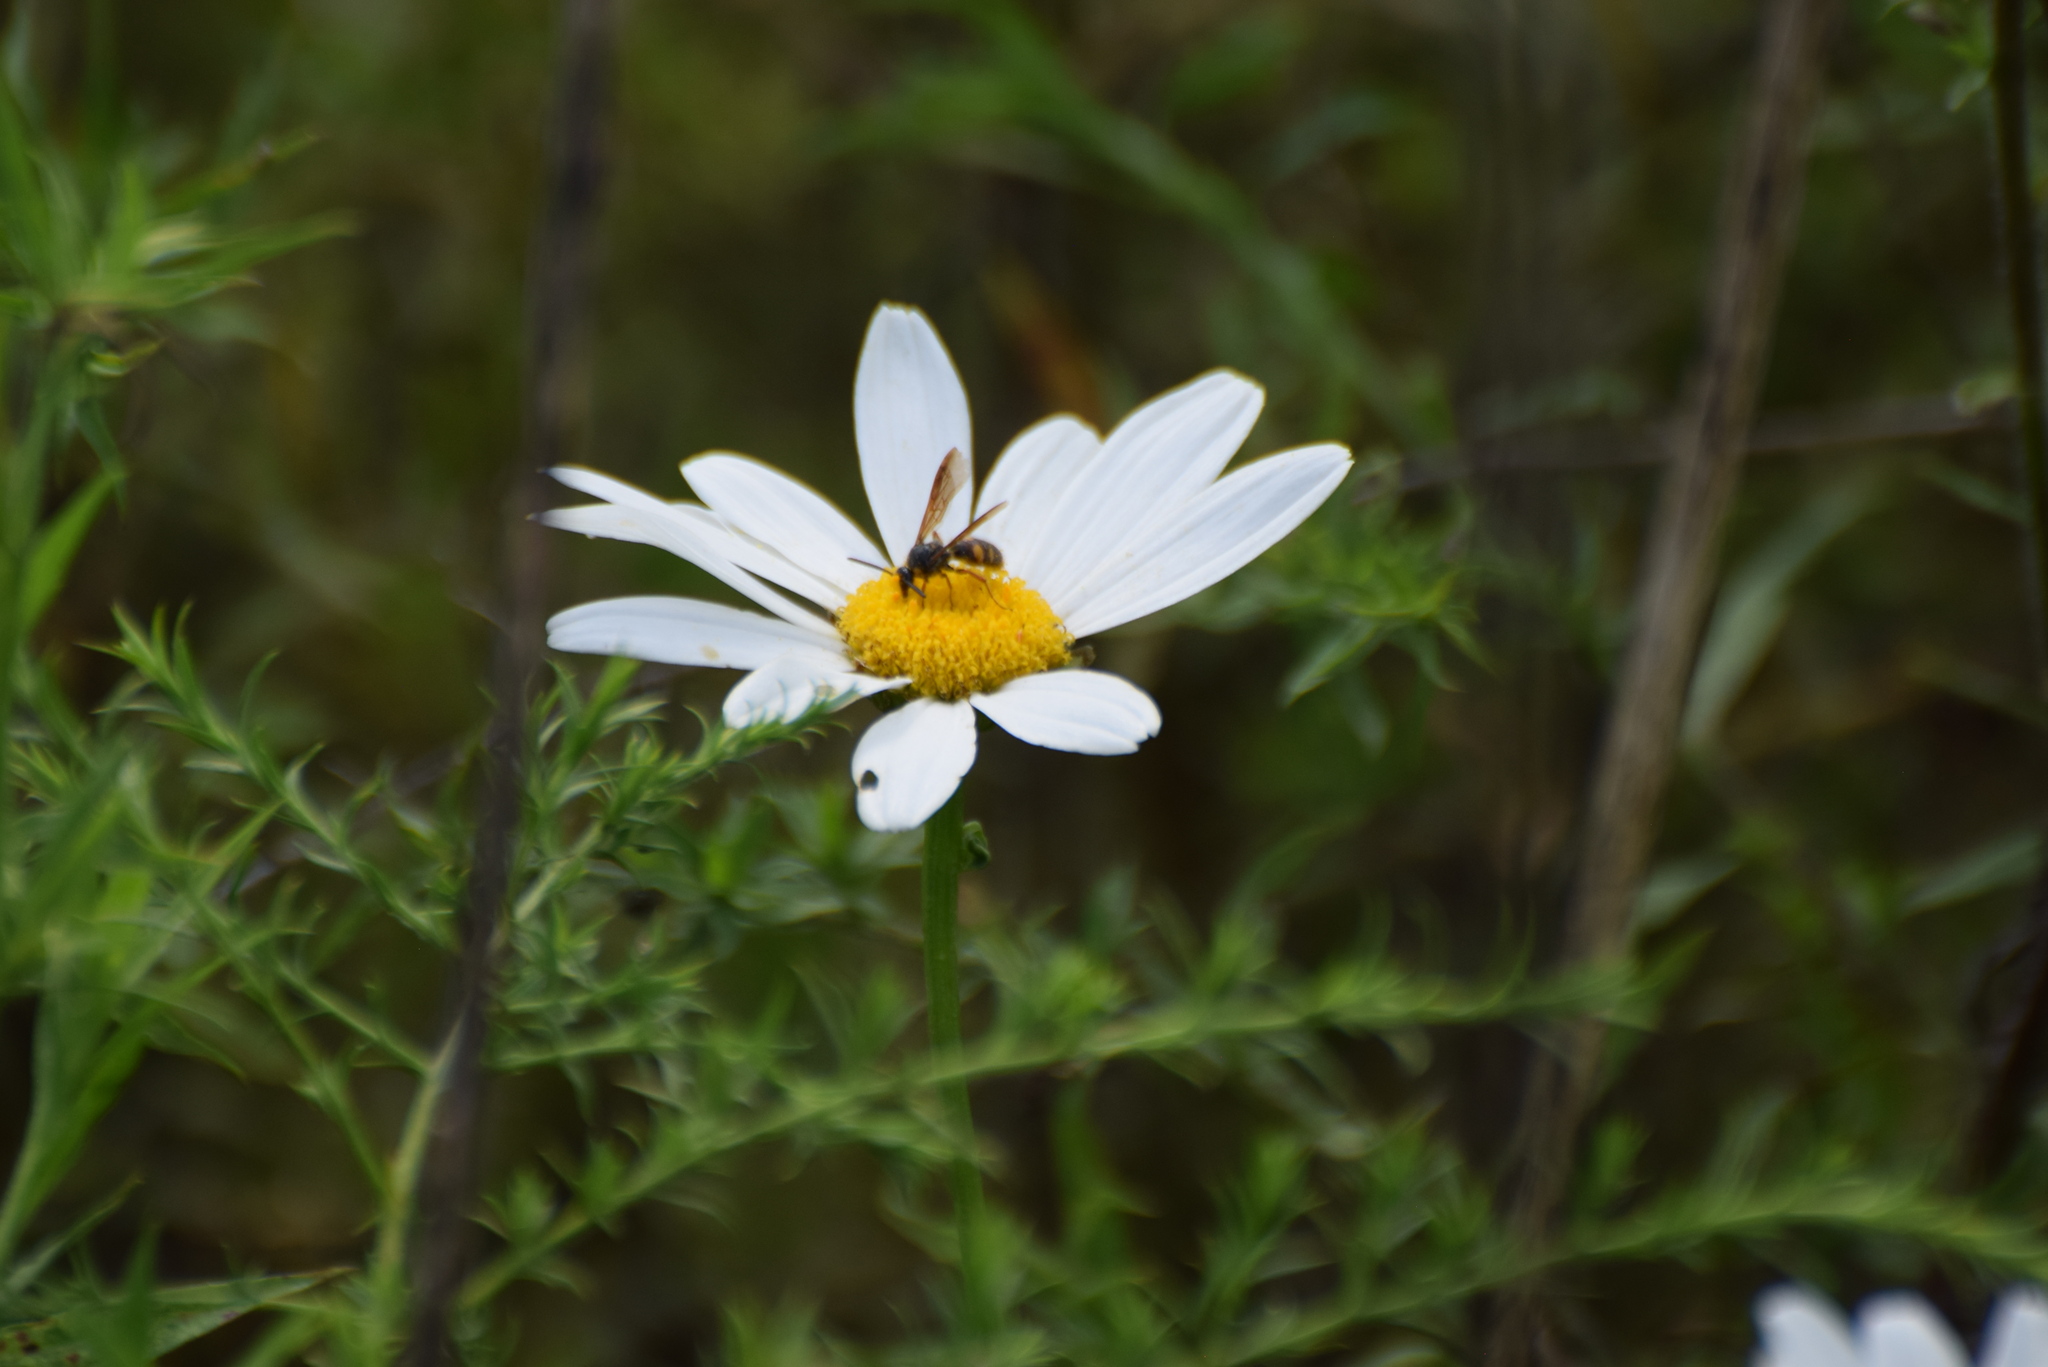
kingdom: Animalia
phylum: Arthropoda
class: Insecta
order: Hymenoptera
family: Scoliidae
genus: Scolia
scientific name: Scolia nobilitata
